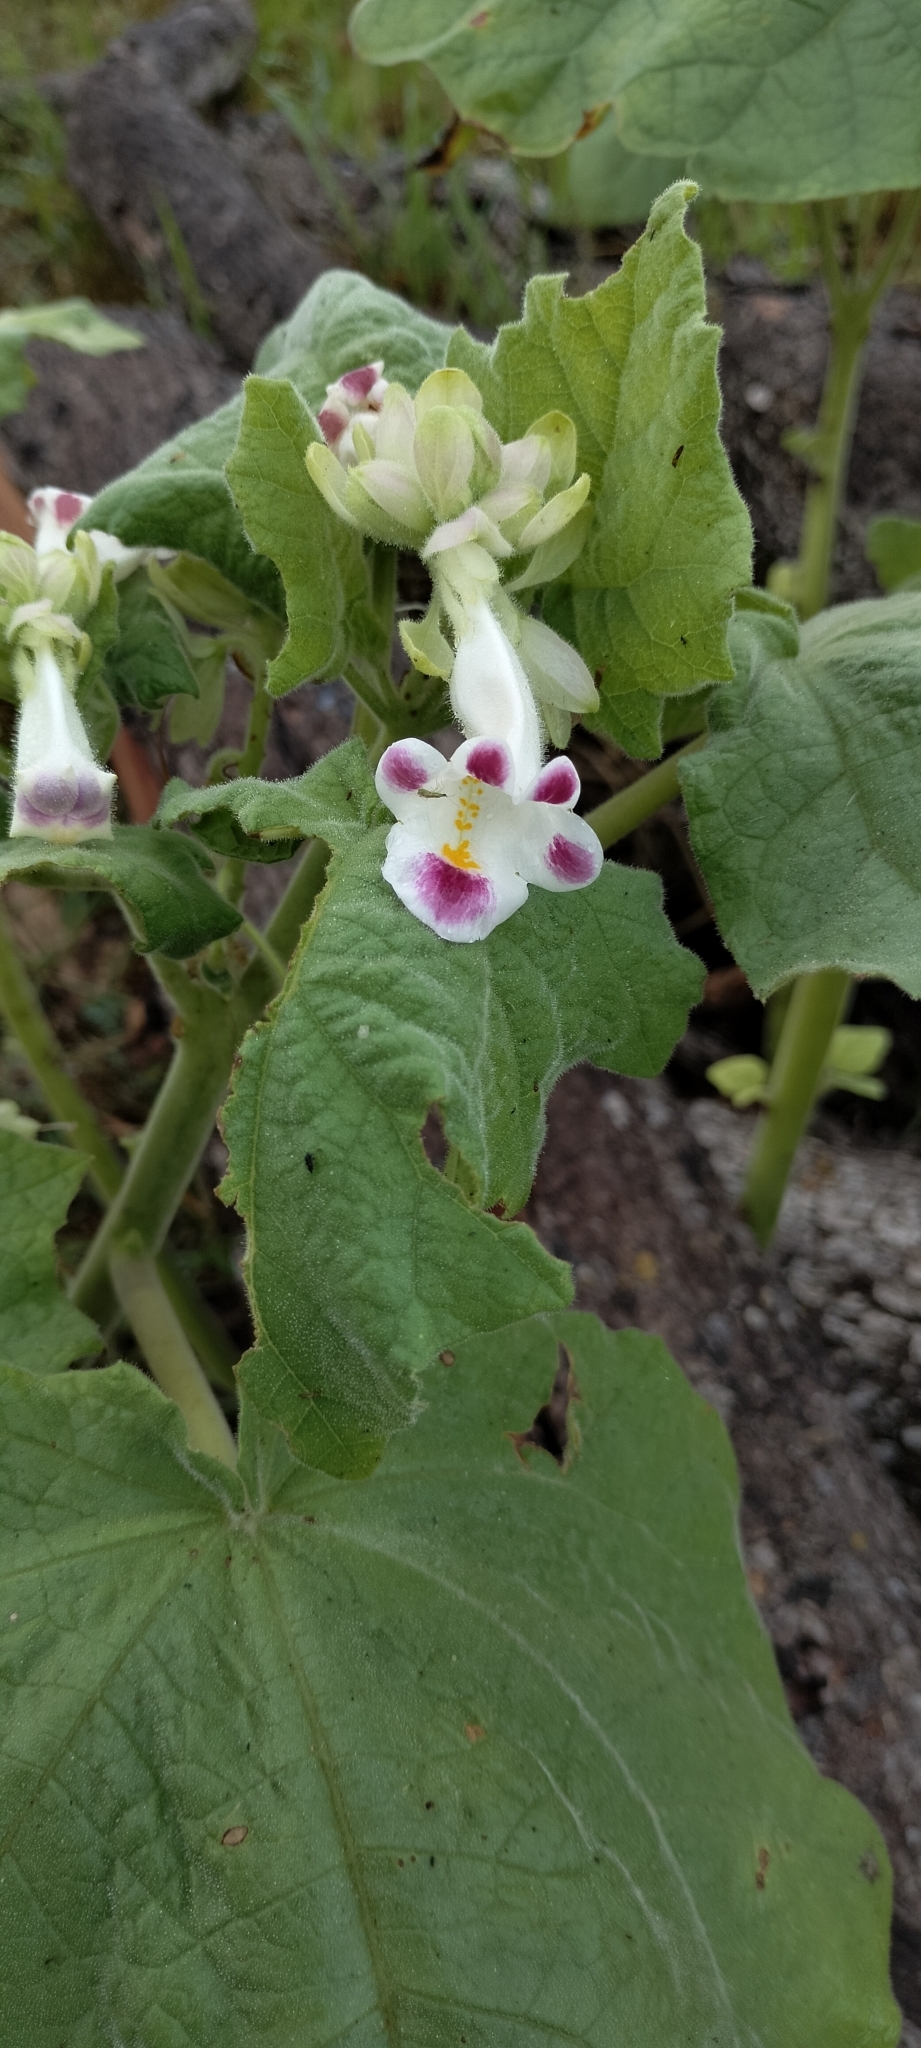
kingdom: Plantae
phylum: Tracheophyta
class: Magnoliopsida
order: Lamiales
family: Martyniaceae
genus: Martynia
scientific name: Martynia annua
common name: Tiger's-claw
